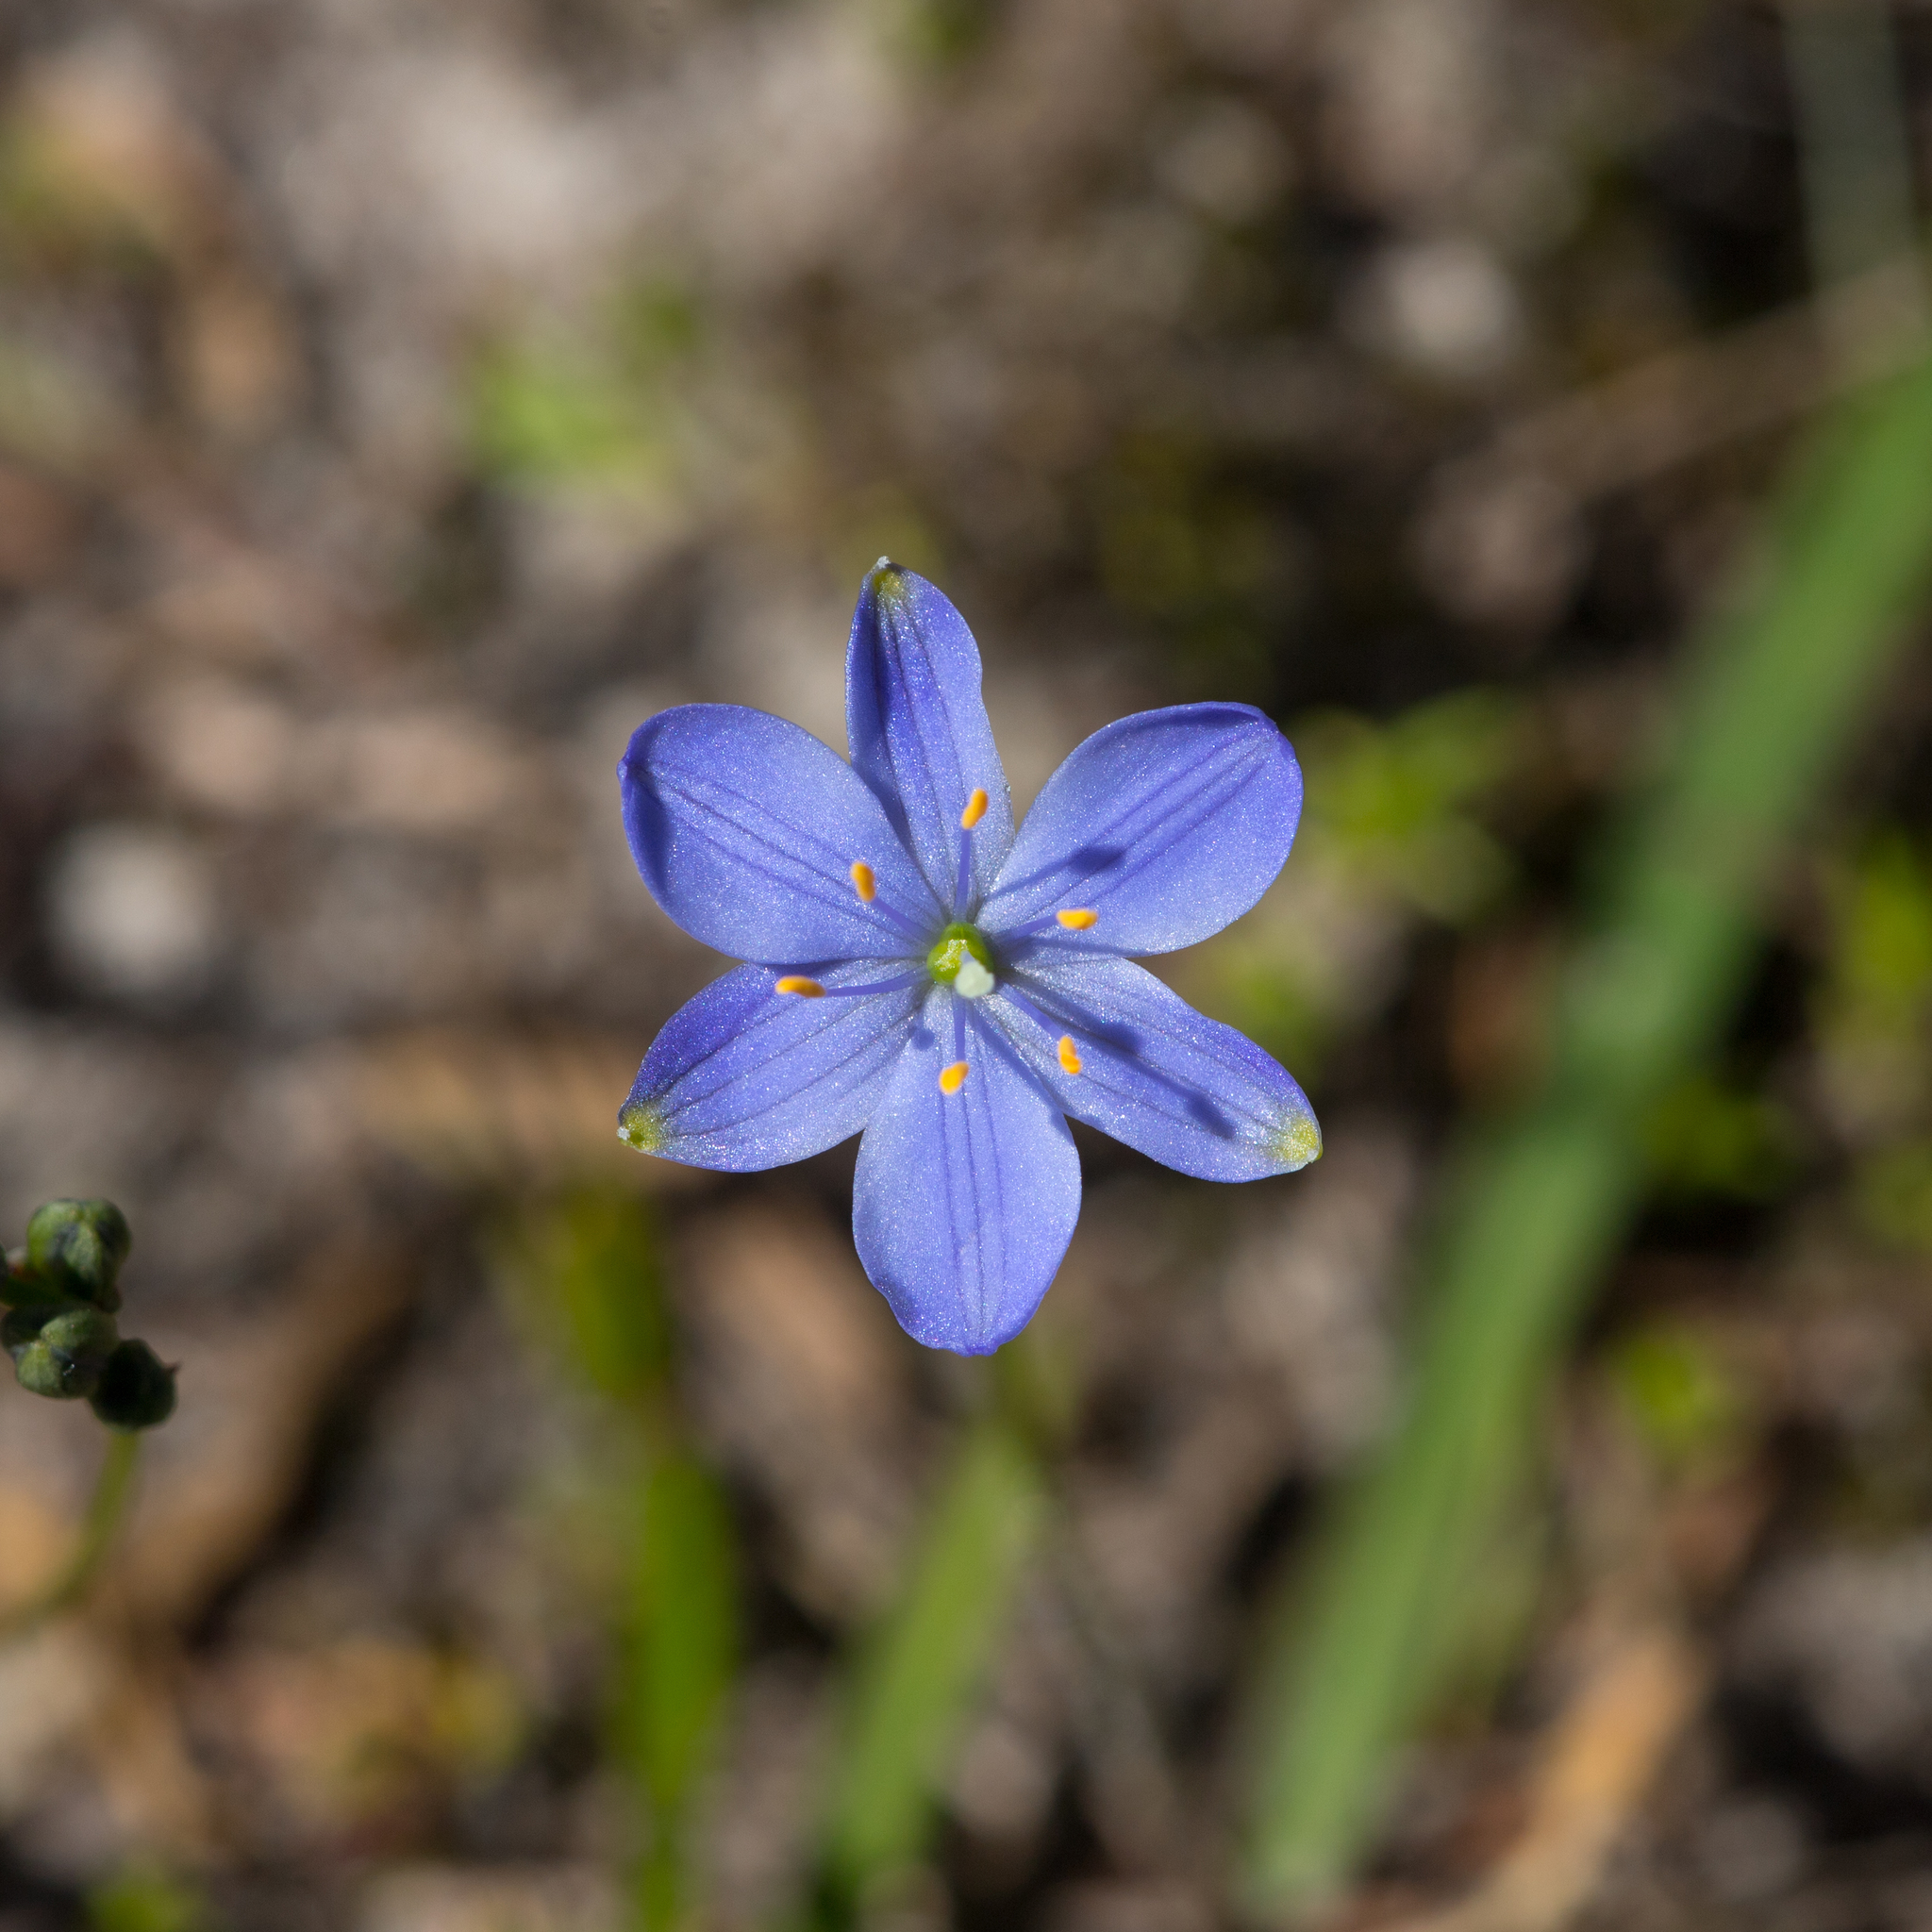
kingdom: Plantae
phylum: Tracheophyta
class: Liliopsida
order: Asparagales
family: Asphodelaceae
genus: Chamaescilla
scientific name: Chamaescilla corymbosa
